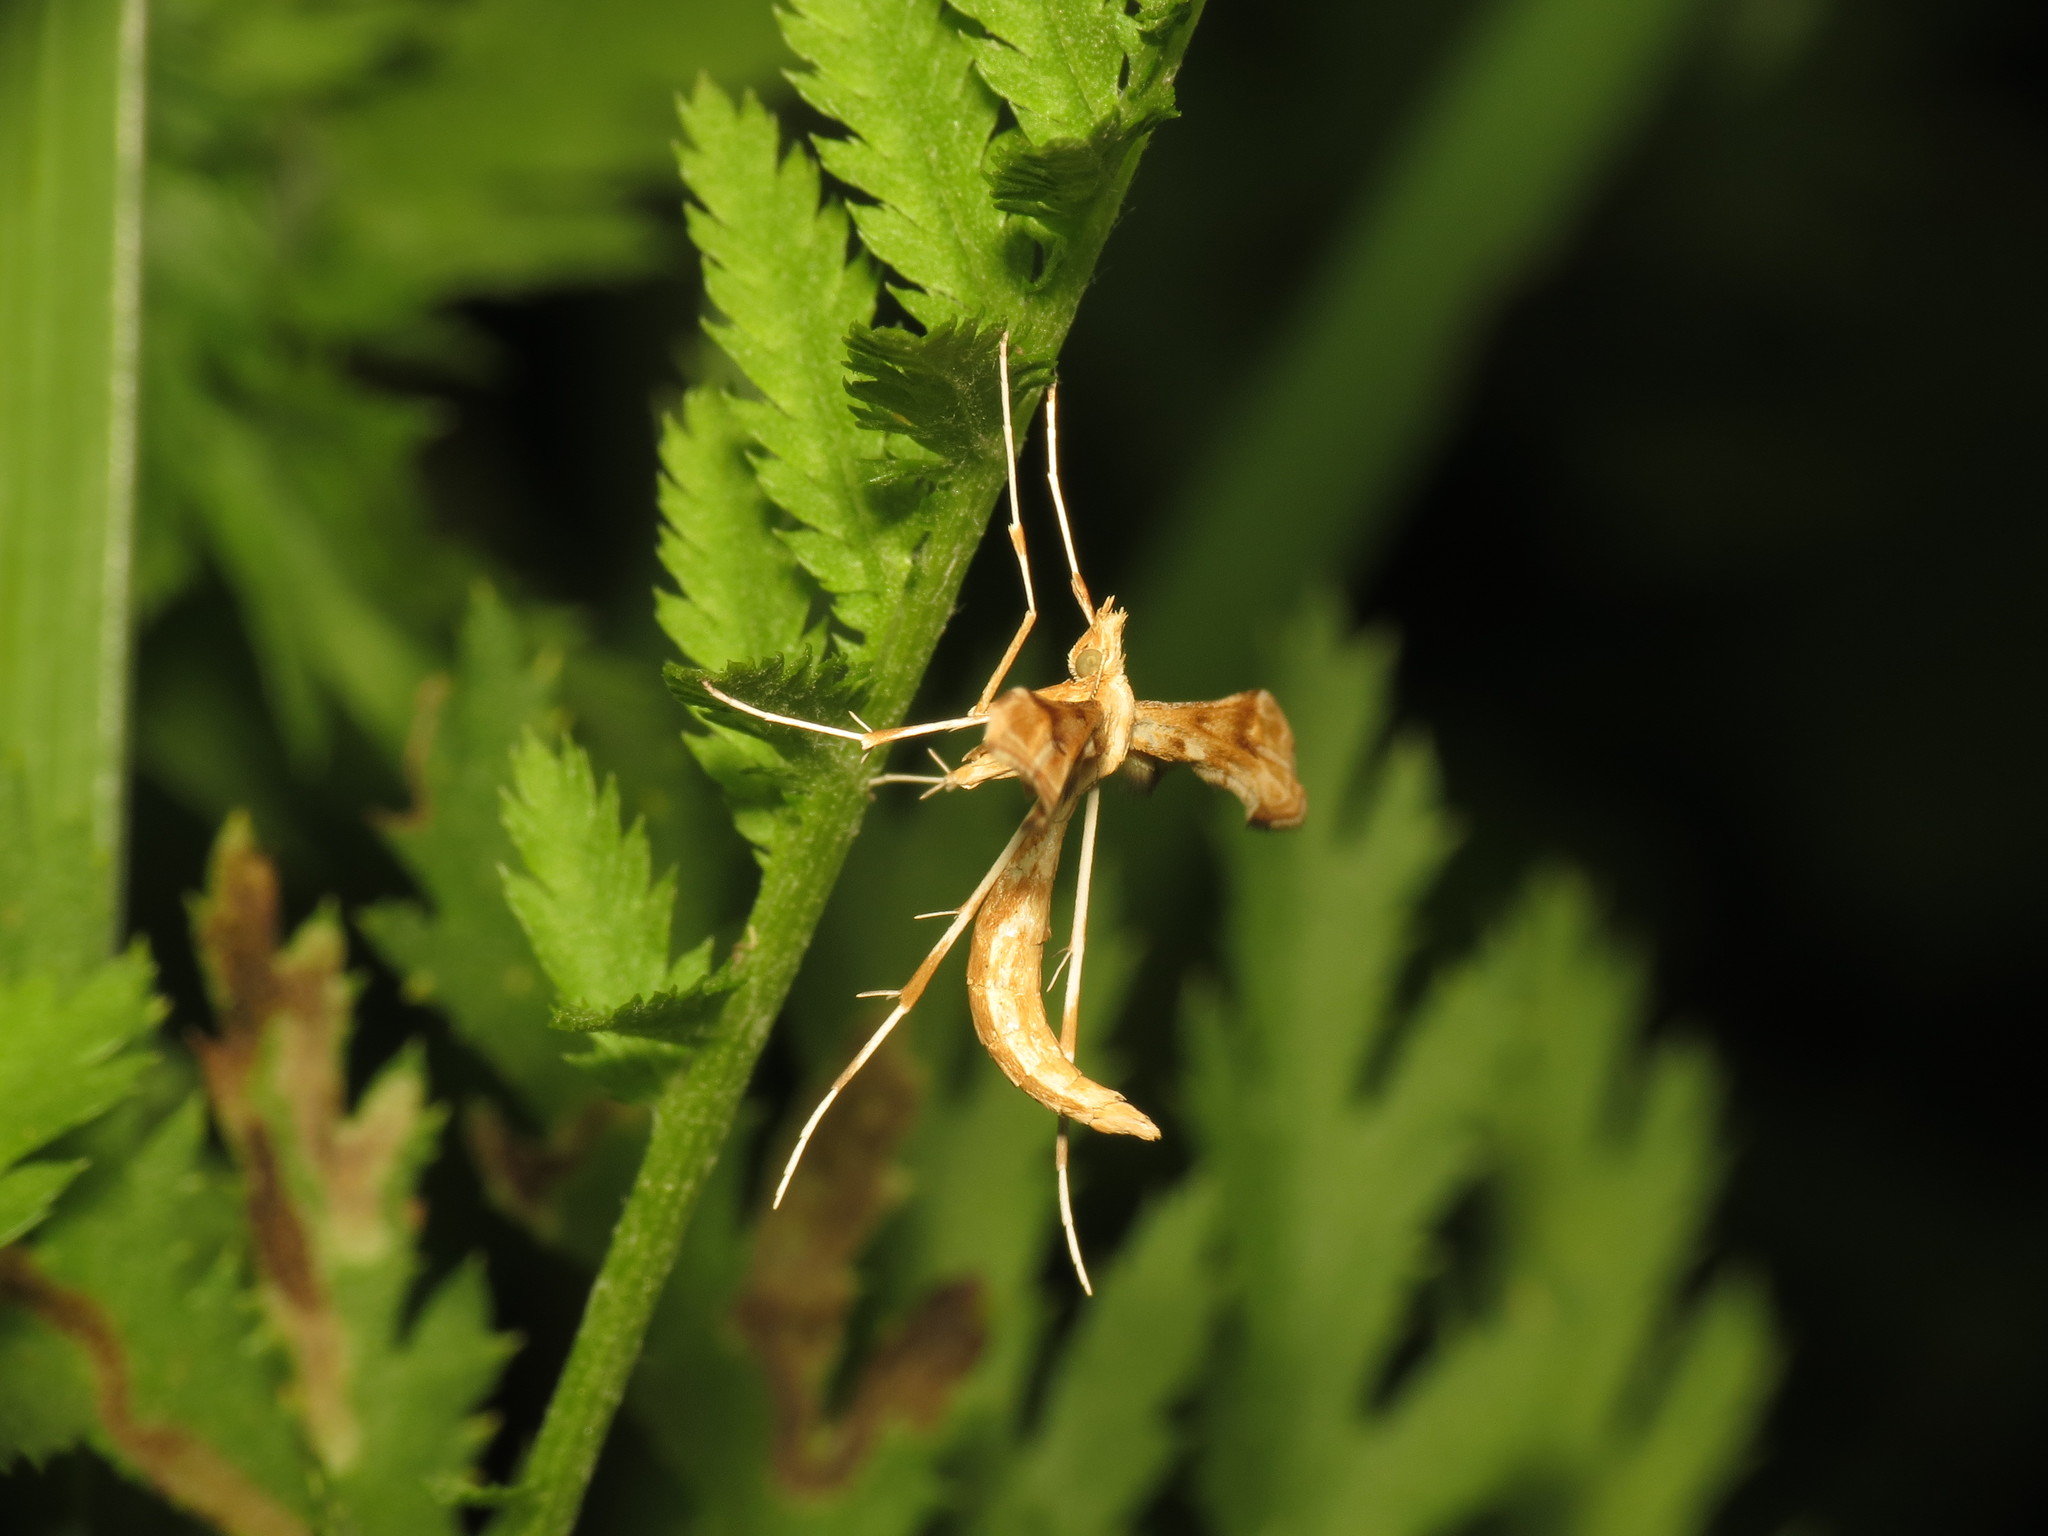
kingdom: Animalia
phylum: Arthropoda
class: Insecta
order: Lepidoptera
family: Pterophoridae
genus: Gillmeria
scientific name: Gillmeria ochrodactyla
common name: Tansy plume
